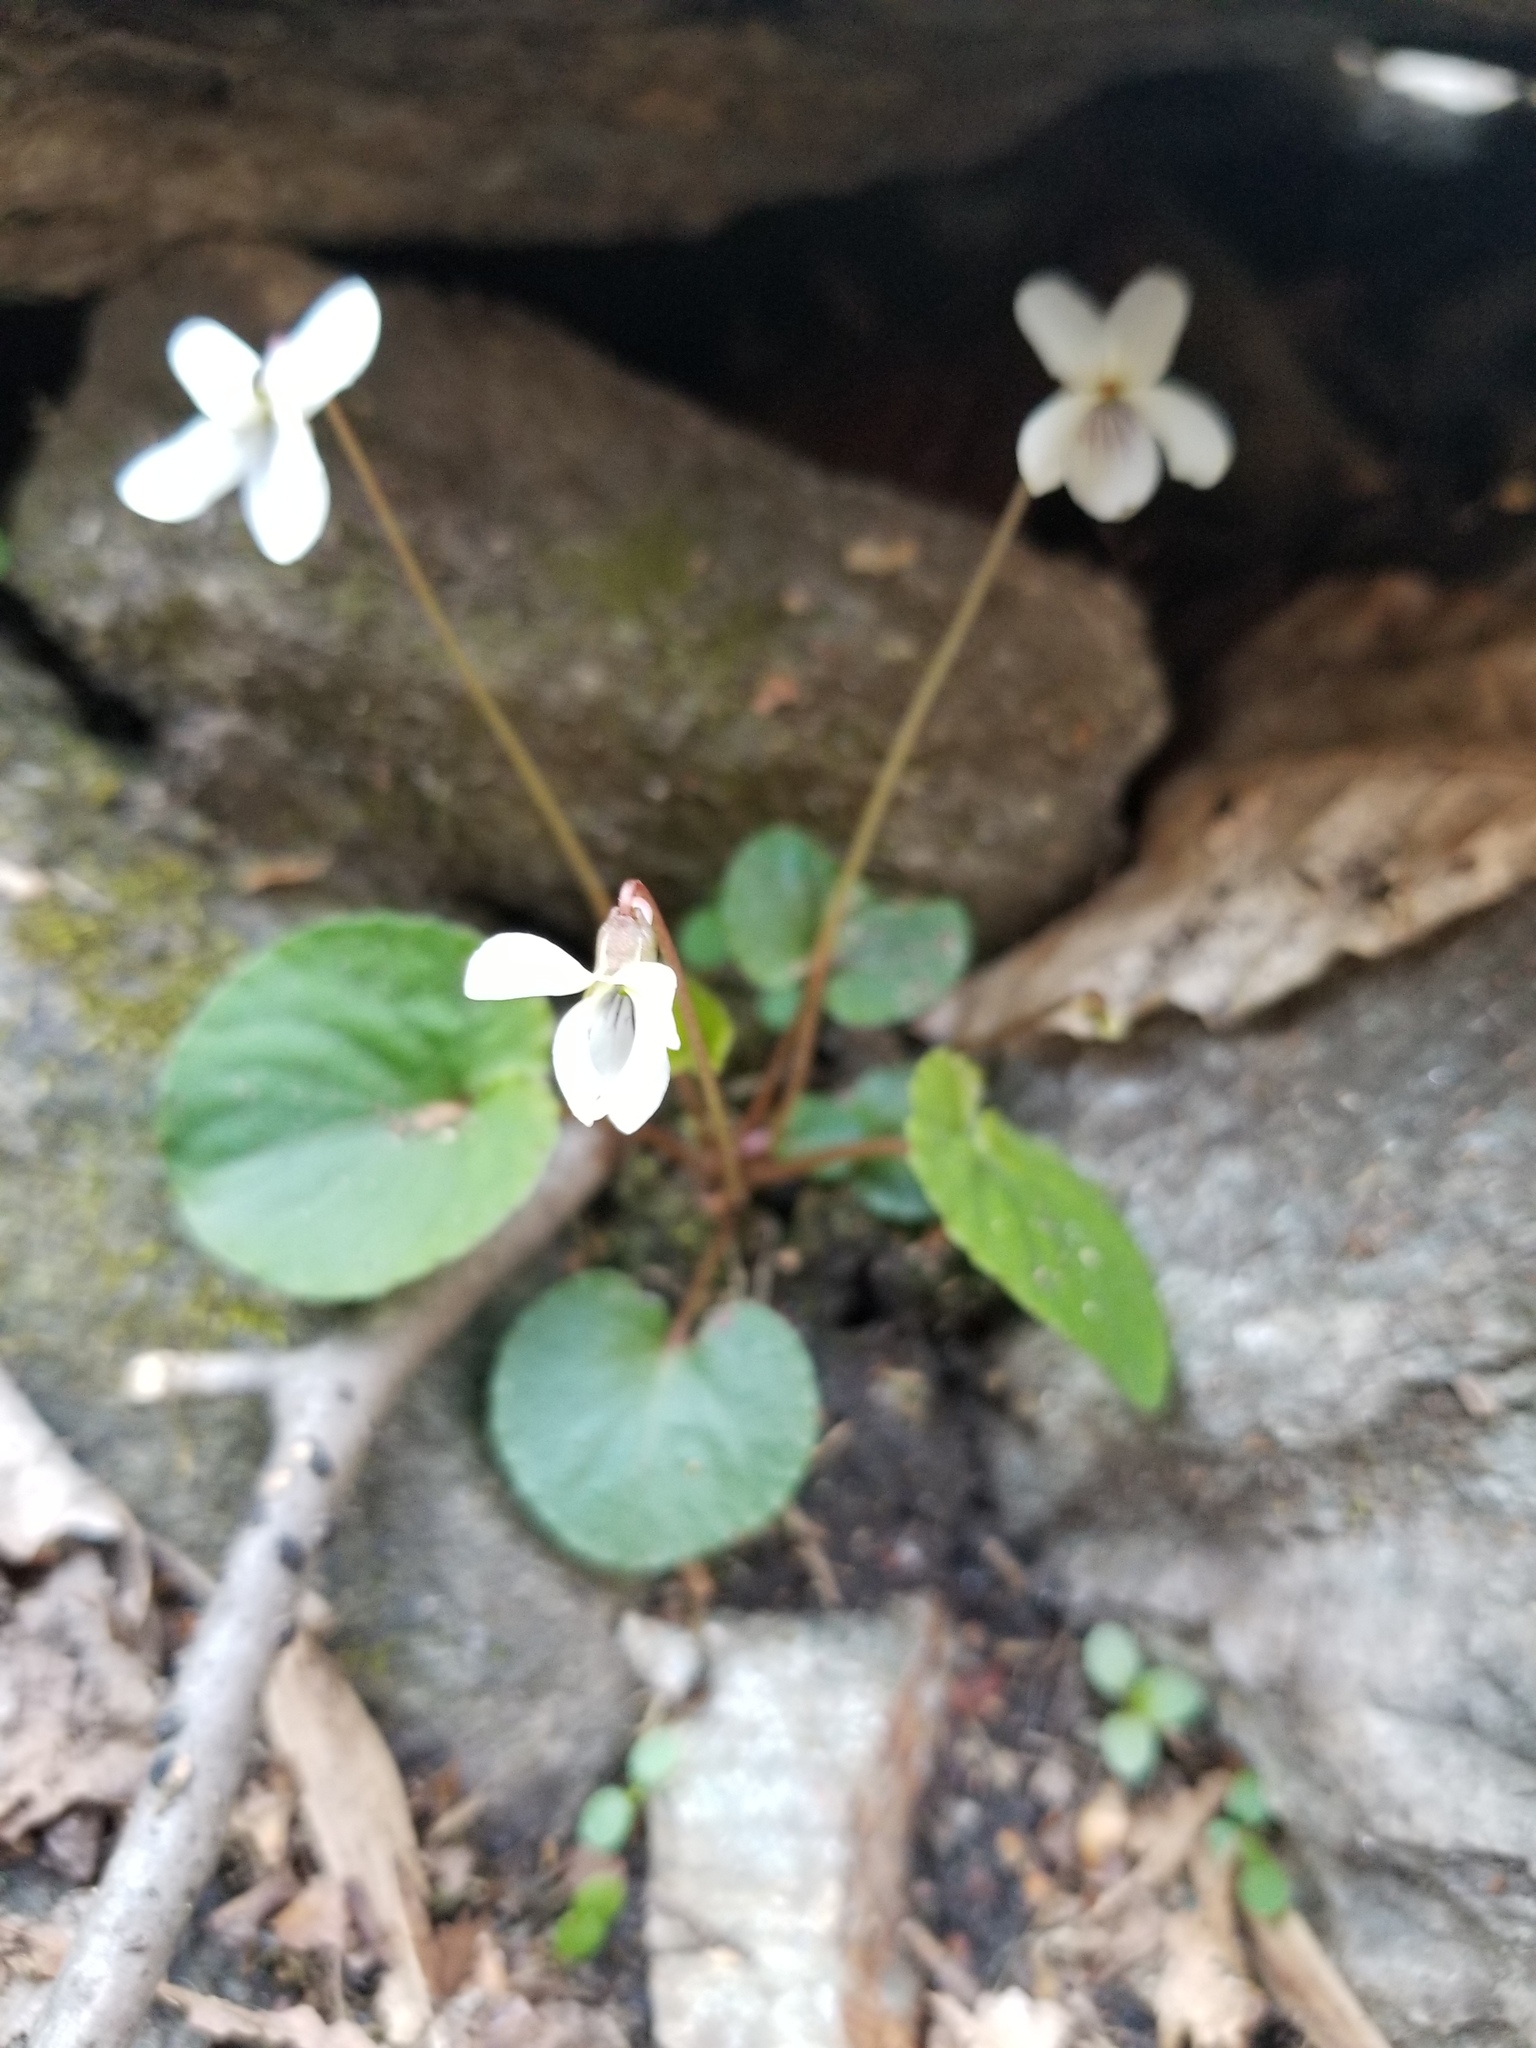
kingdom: Plantae
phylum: Tracheophyta
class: Magnoliopsida
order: Malpighiales
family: Violaceae
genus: Viola
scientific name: Viola blanda
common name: Sweet white violet
